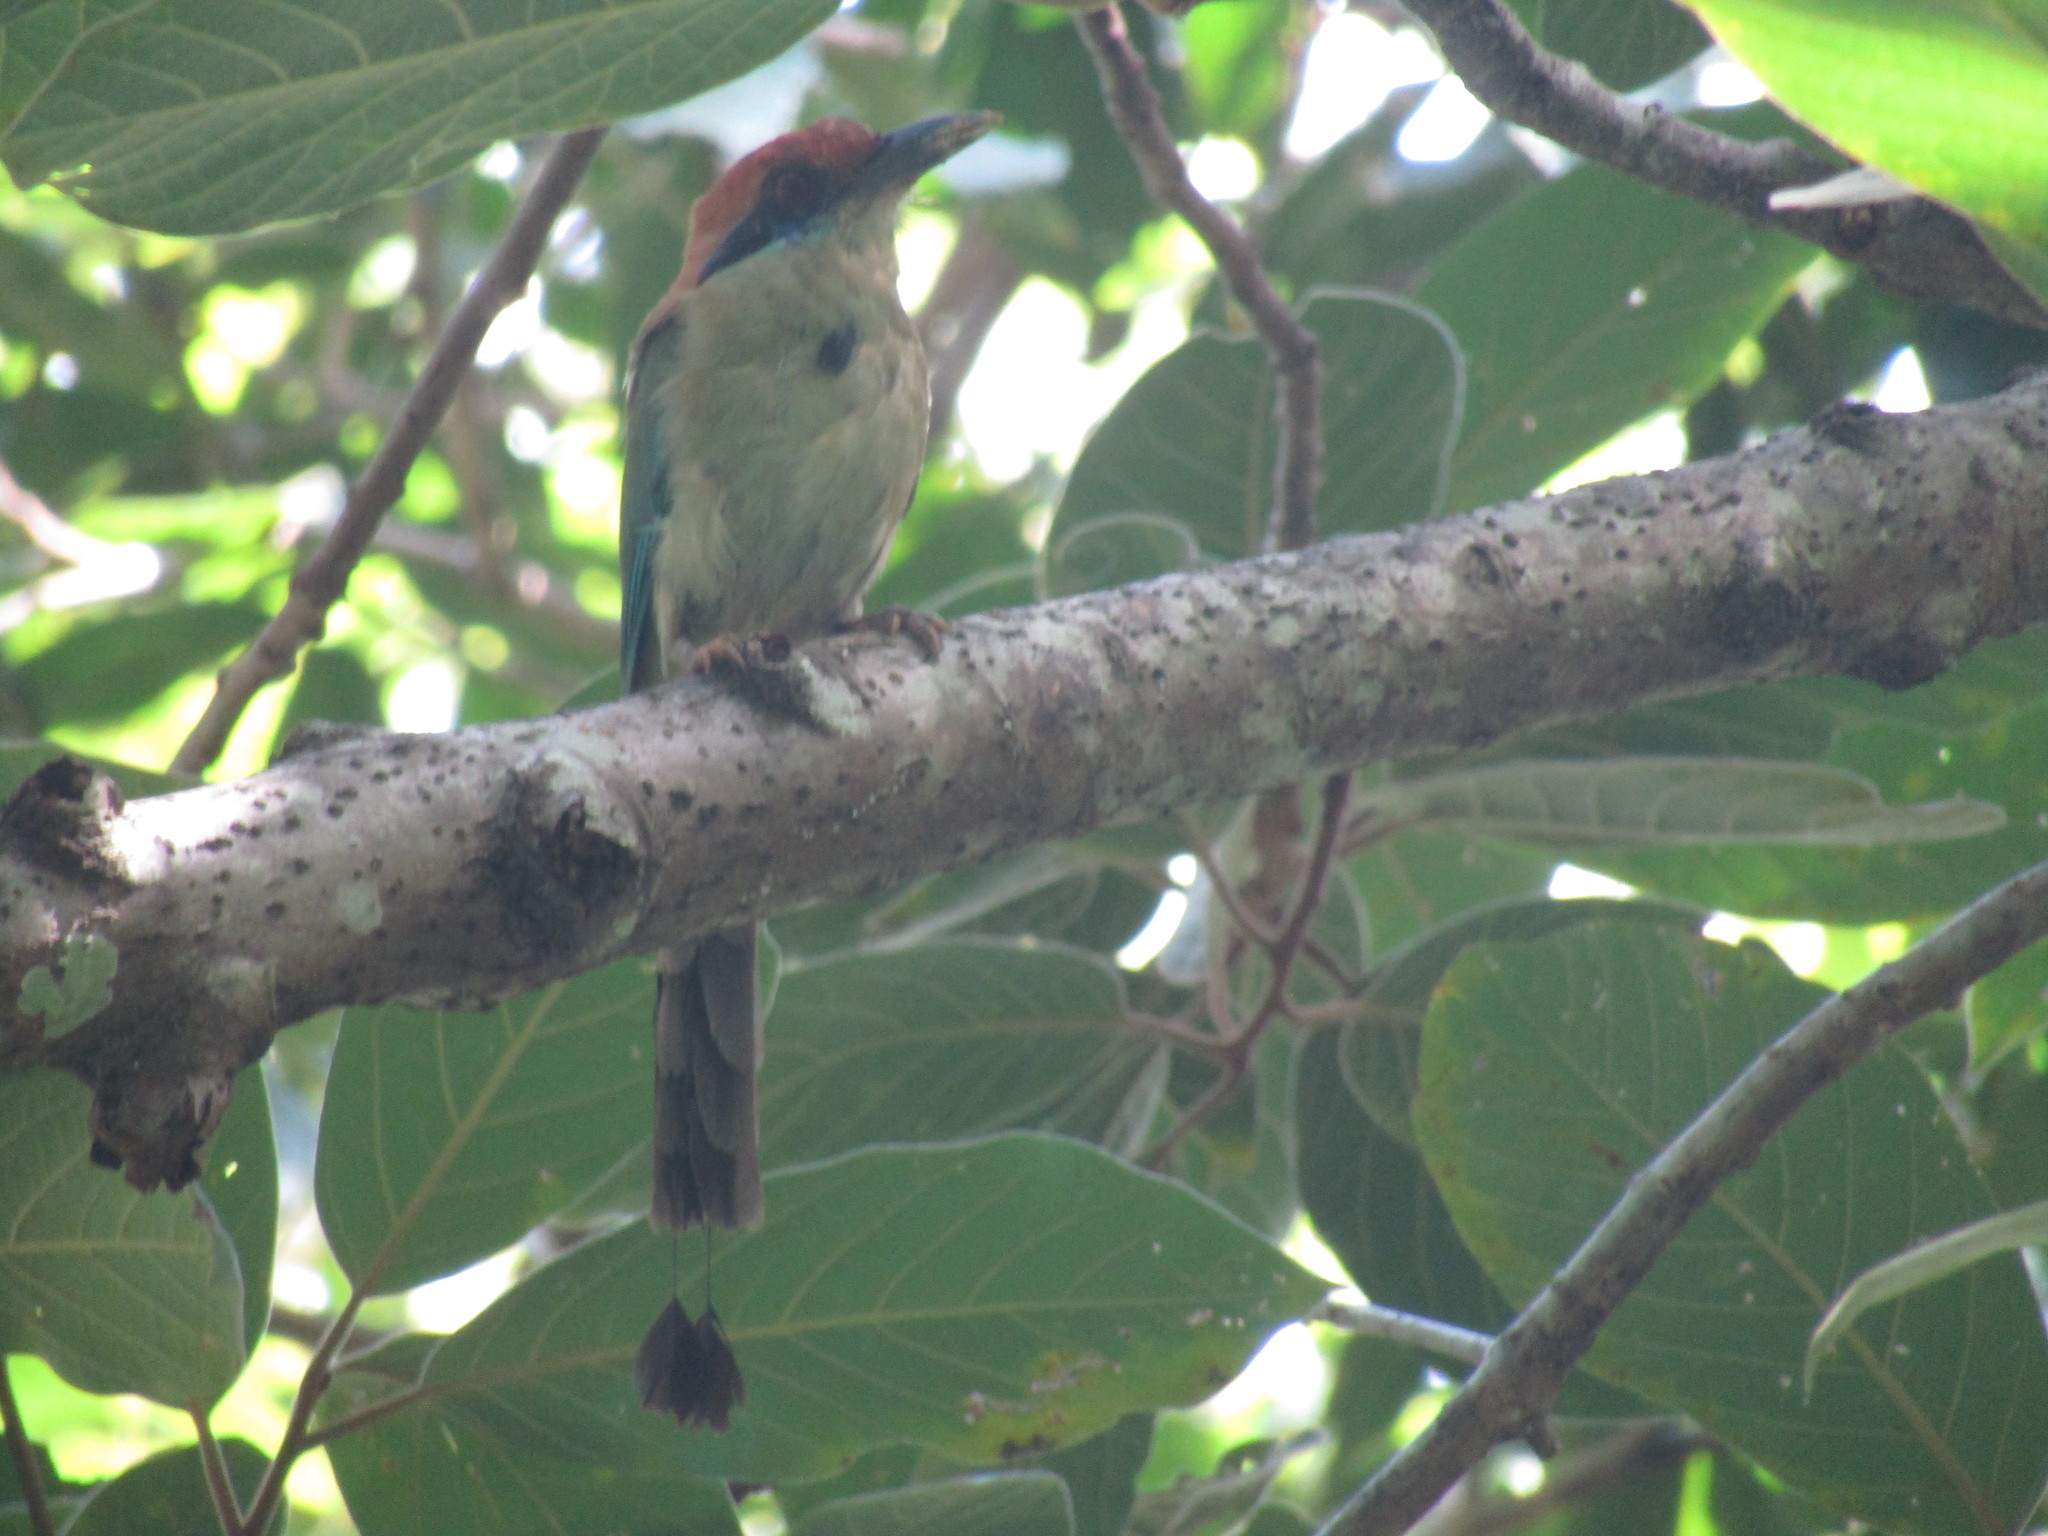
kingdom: Animalia
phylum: Chordata
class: Aves
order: Coraciiformes
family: Momotidae
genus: Momotus
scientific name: Momotus mexicanus
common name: Russet-crowned motmot
